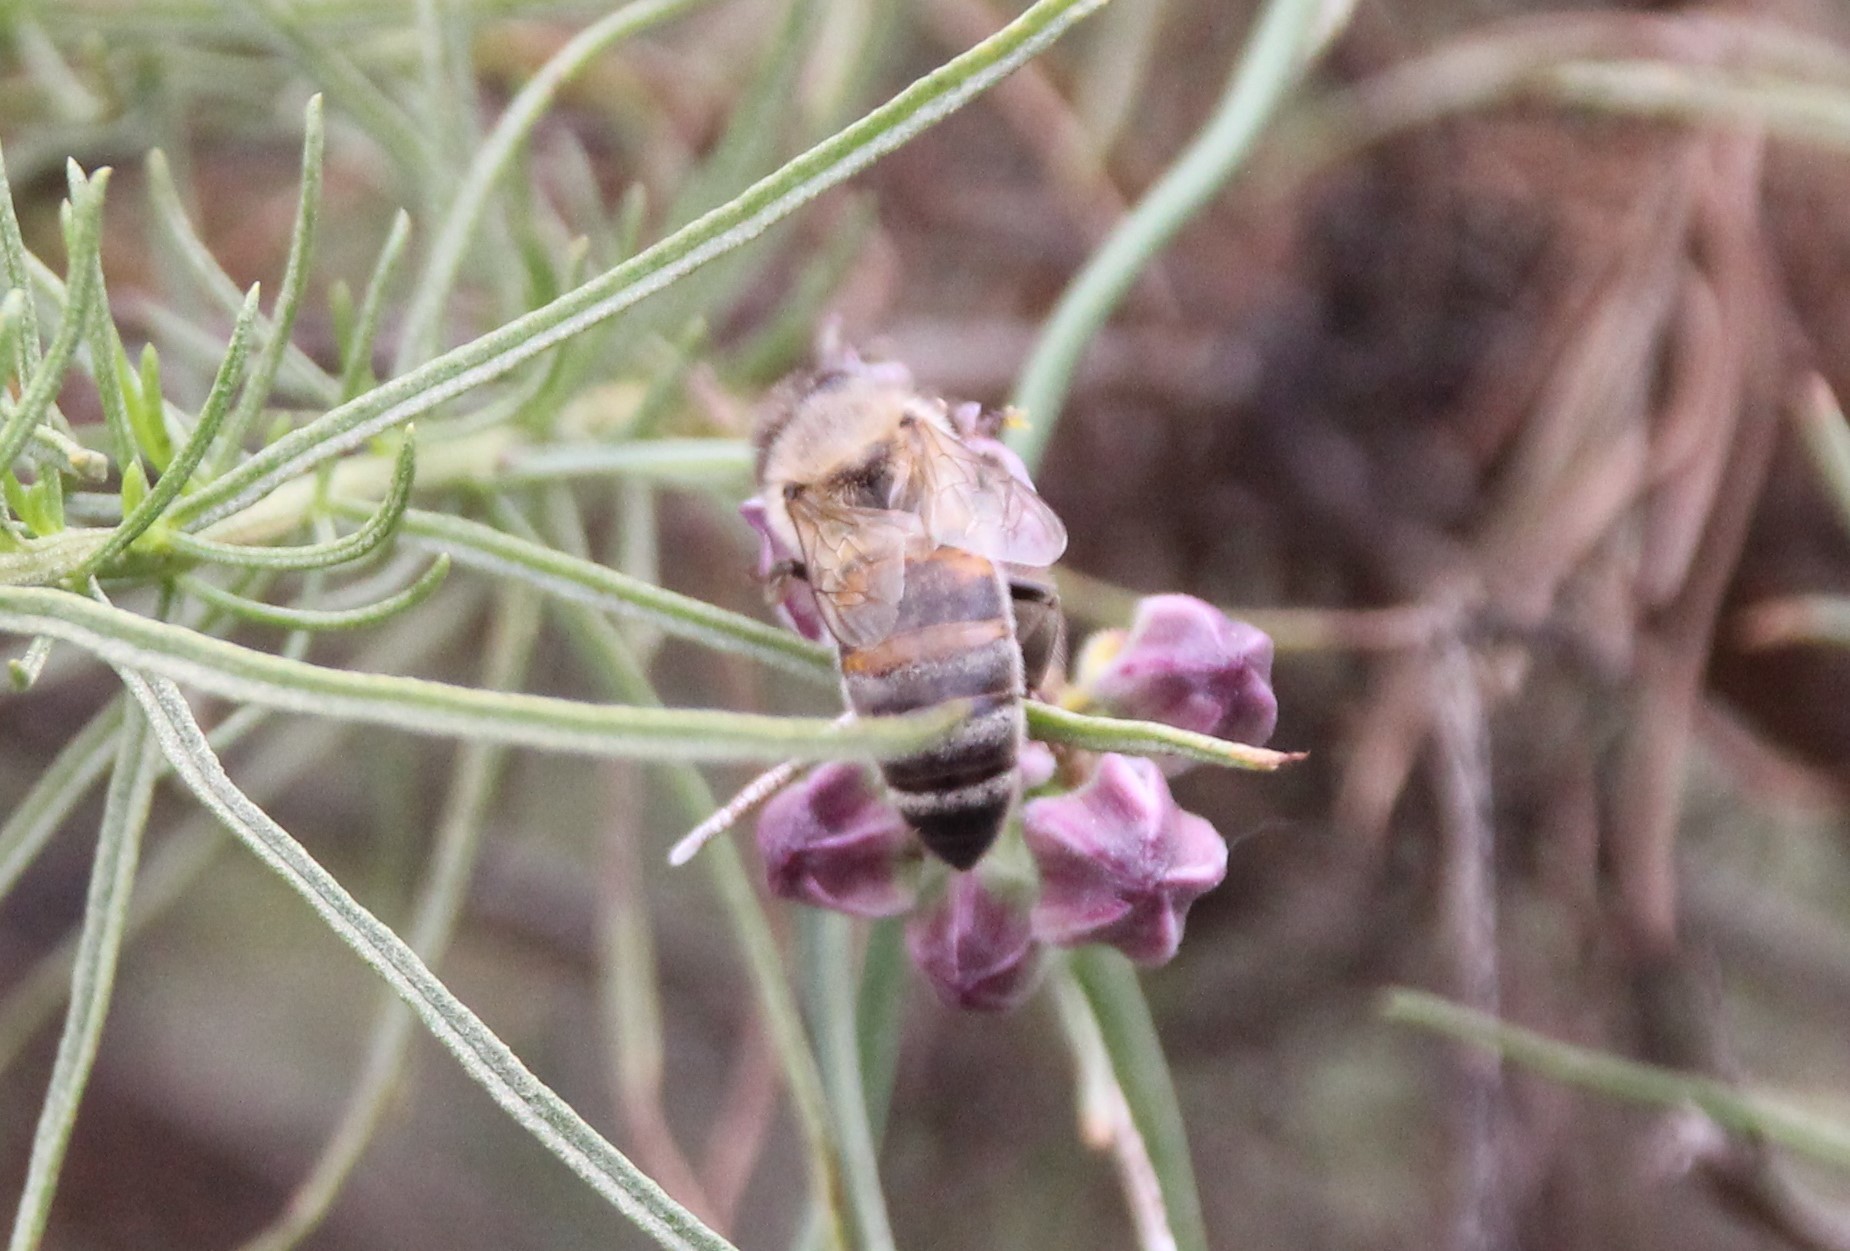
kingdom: Animalia
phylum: Arthropoda
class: Insecta
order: Hymenoptera
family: Apidae
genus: Apis
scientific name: Apis mellifera
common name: Honey bee
